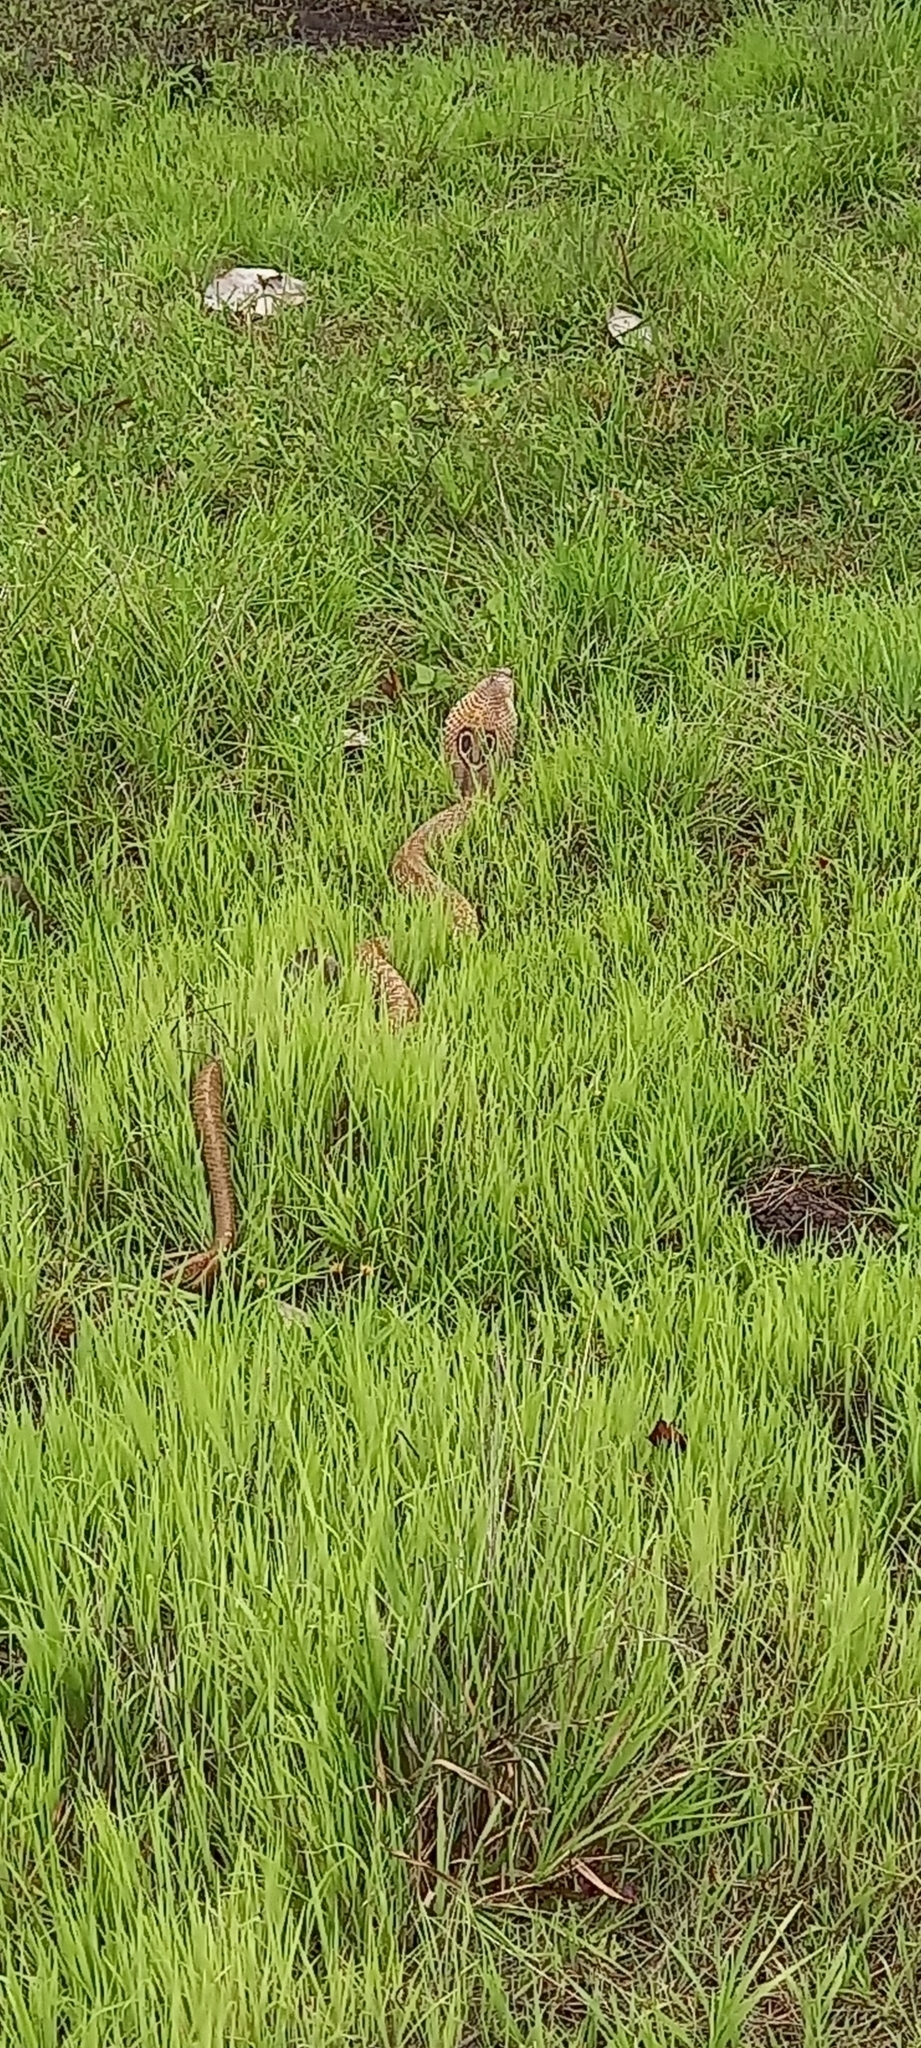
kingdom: Animalia
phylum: Chordata
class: Squamata
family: Elapidae
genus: Naja
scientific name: Naja naja
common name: Indian cobra
